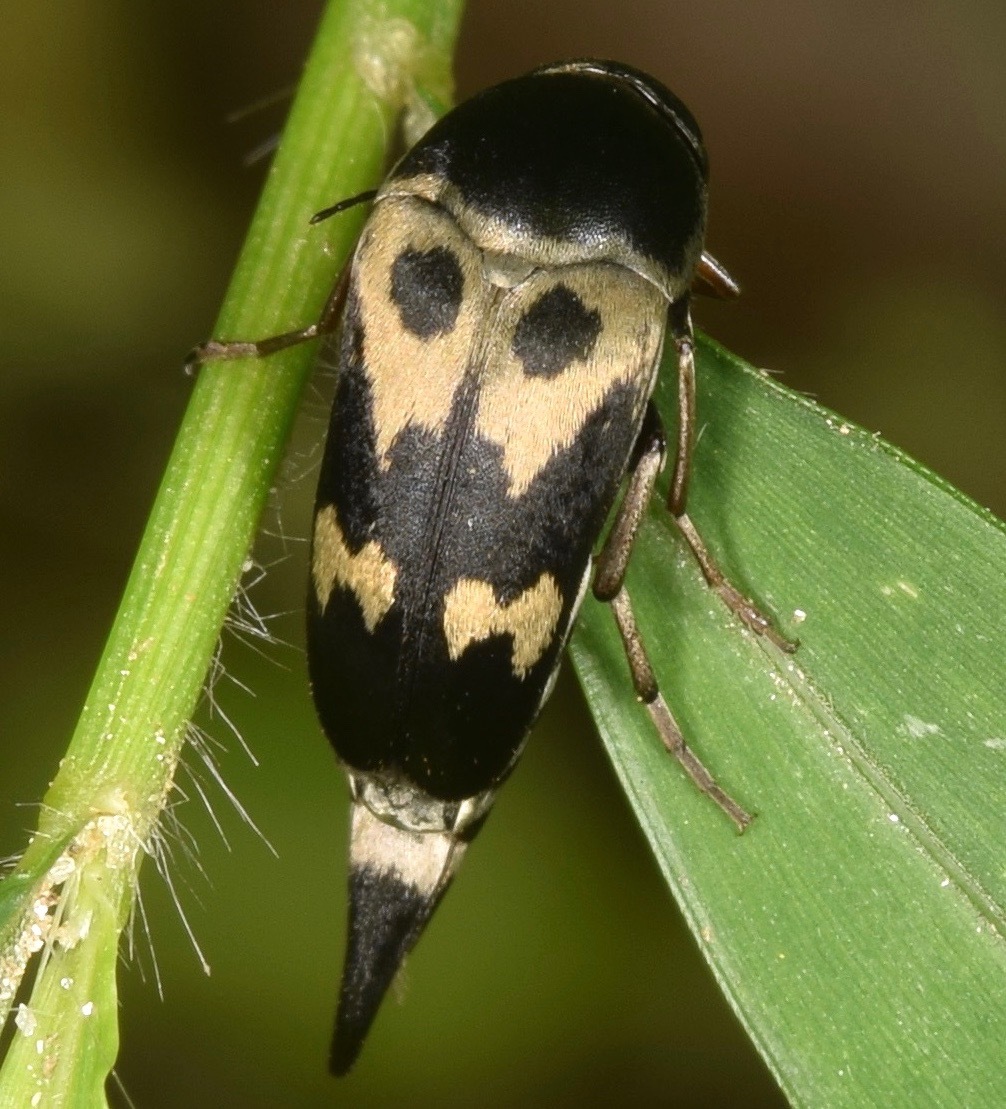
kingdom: Animalia
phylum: Arthropoda
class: Insecta
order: Coleoptera
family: Mordellidae
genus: Glipa
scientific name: Glipa oculata
